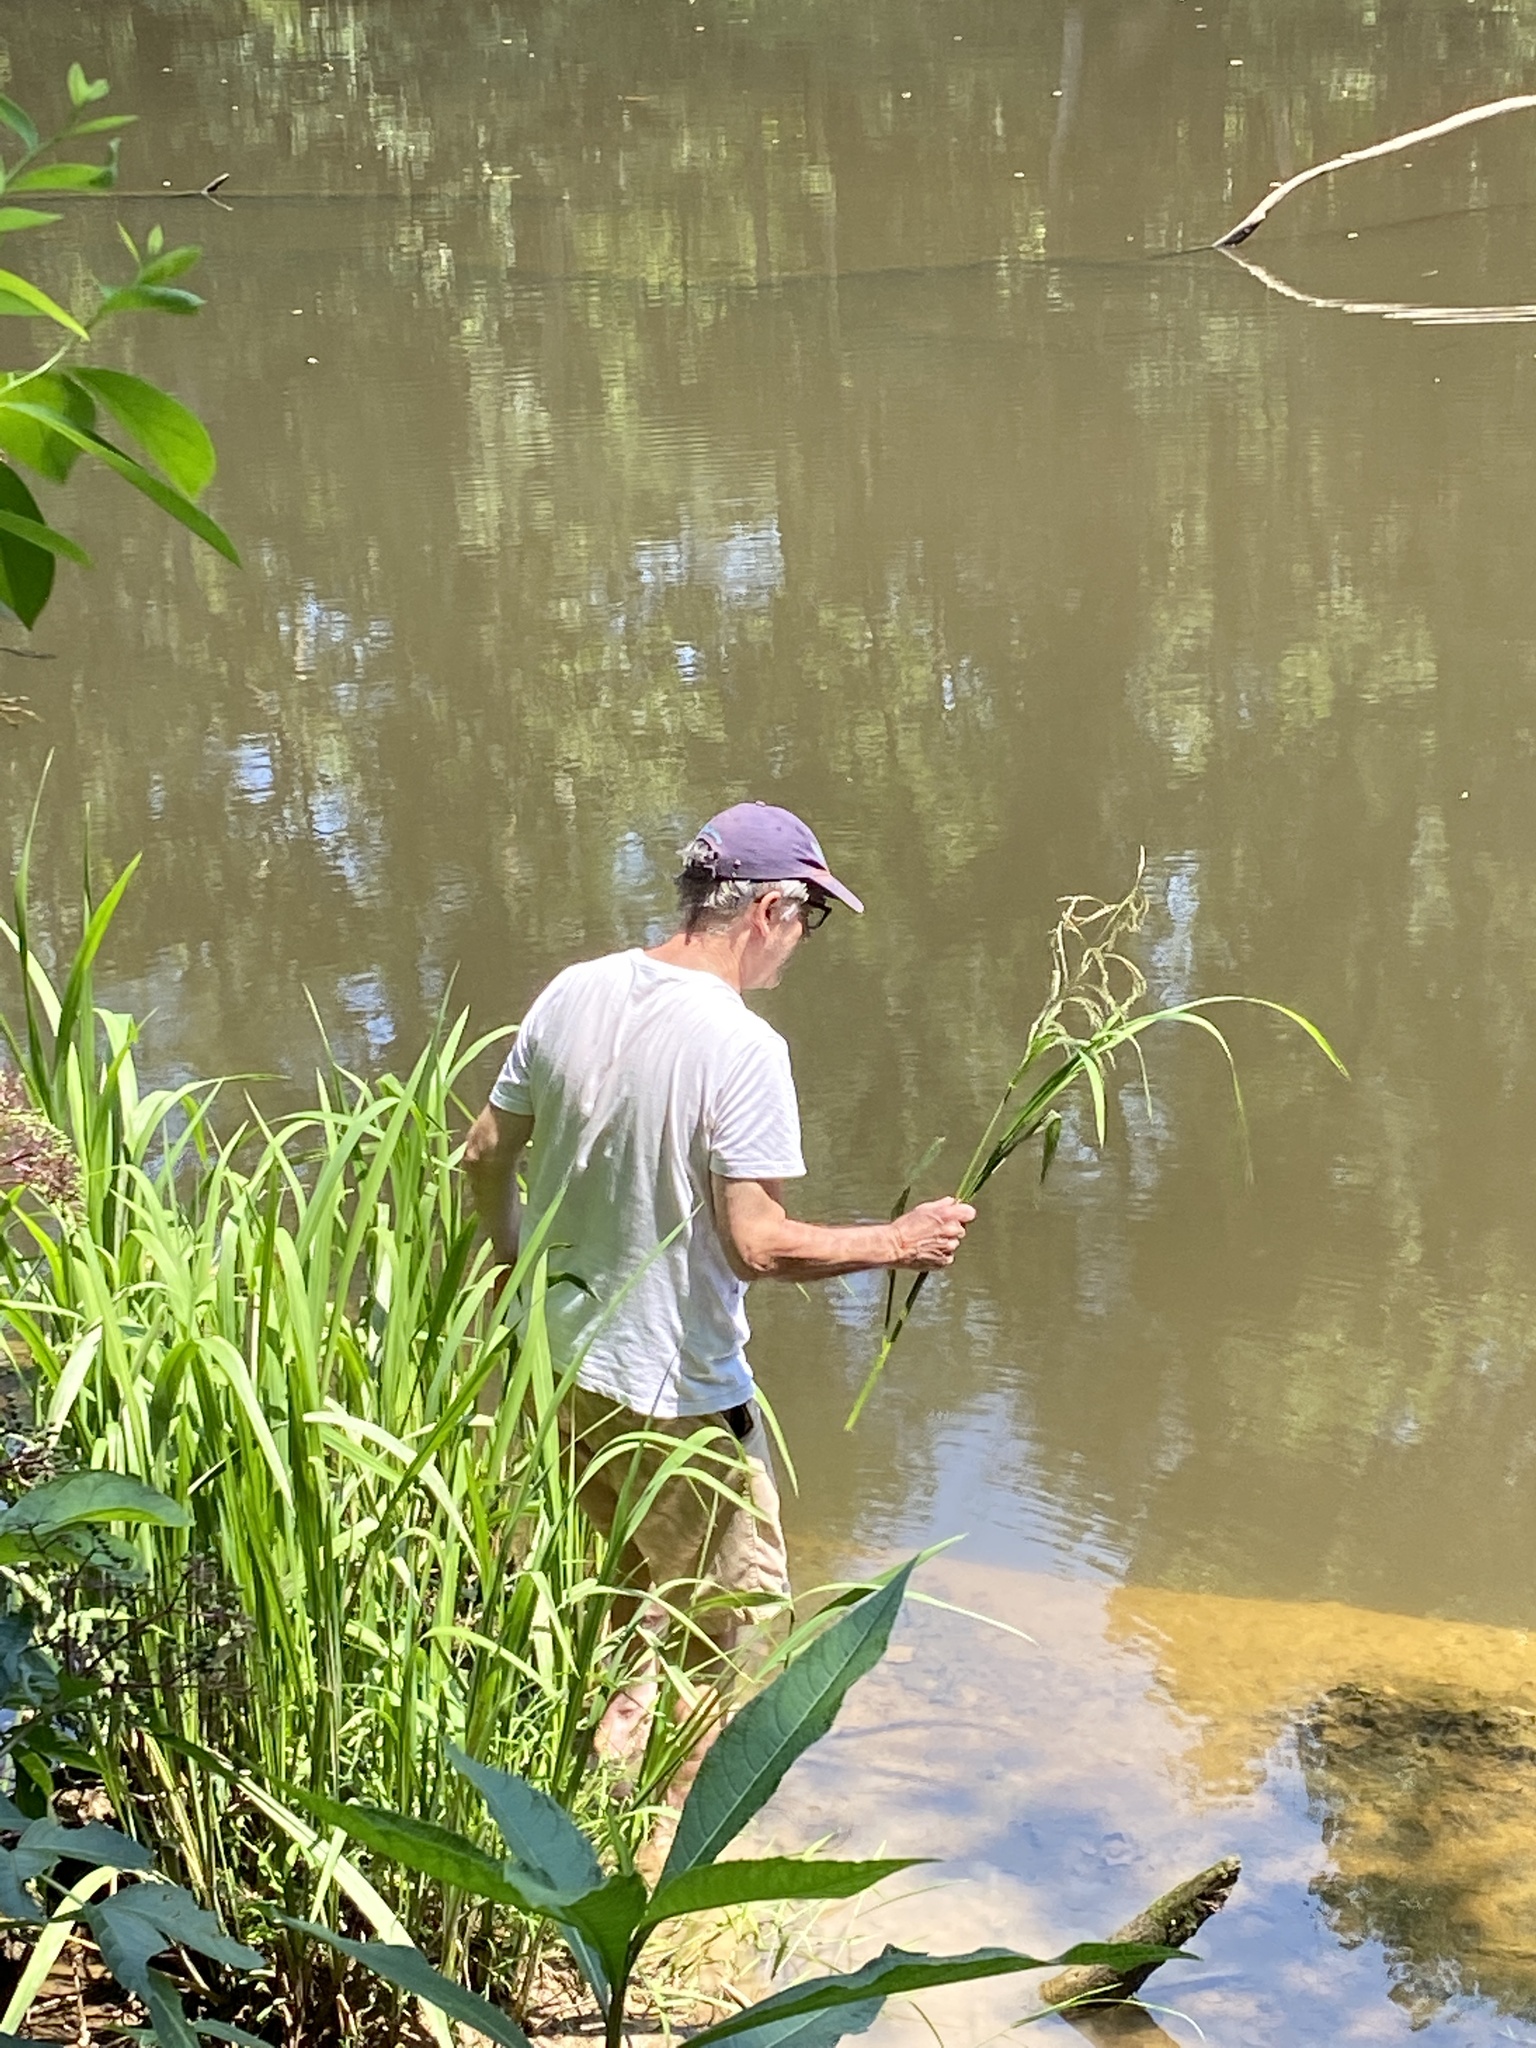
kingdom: Plantae
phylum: Tracheophyta
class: Liliopsida
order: Poales
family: Poaceae
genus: Zizaniopsis
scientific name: Zizaniopsis miliacea
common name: Giant-cutgrass
